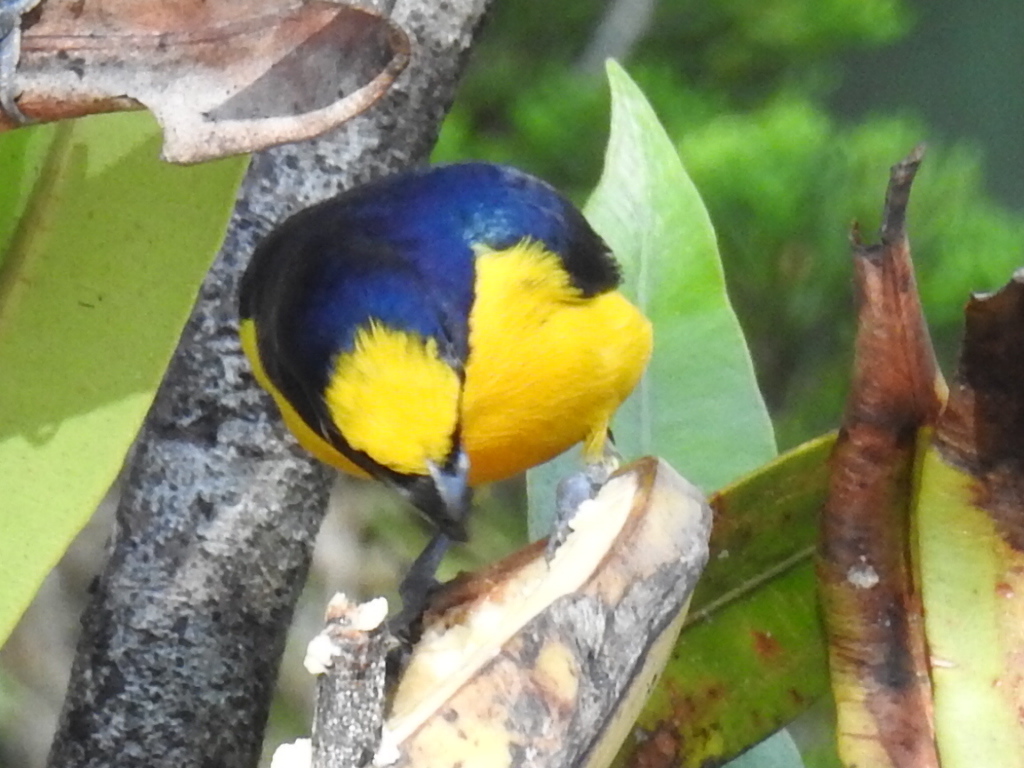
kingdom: Animalia
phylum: Chordata
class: Aves
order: Passeriformes
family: Fringillidae
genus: Euphonia
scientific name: Euphonia laniirostris
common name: Thick-billed euphonia
